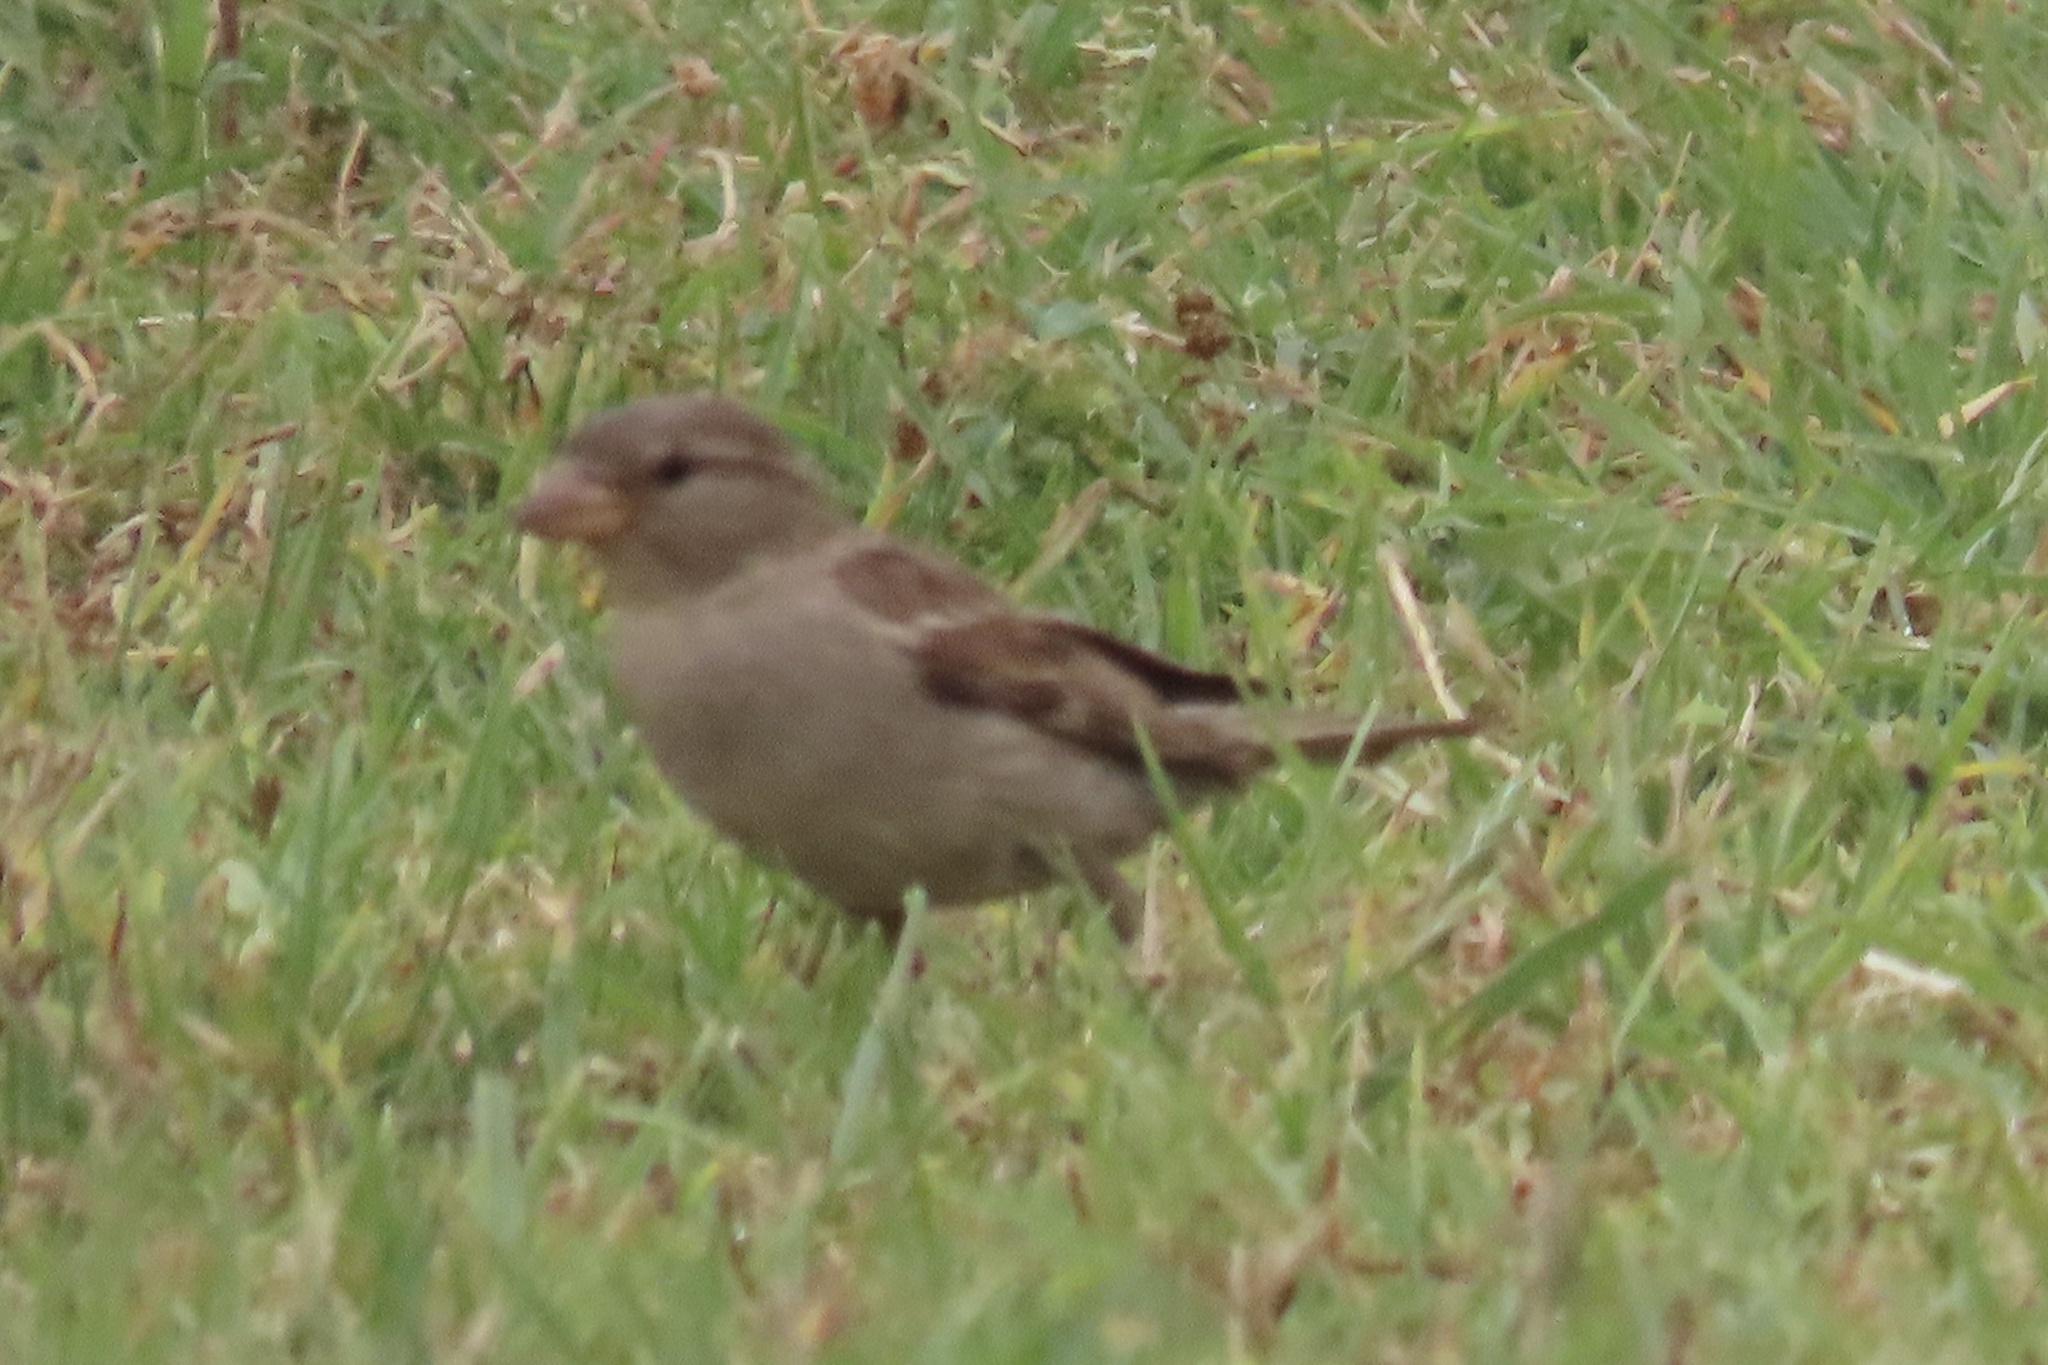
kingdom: Animalia
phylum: Chordata
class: Aves
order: Passeriformes
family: Passeridae
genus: Passer
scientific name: Passer domesticus
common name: House sparrow
